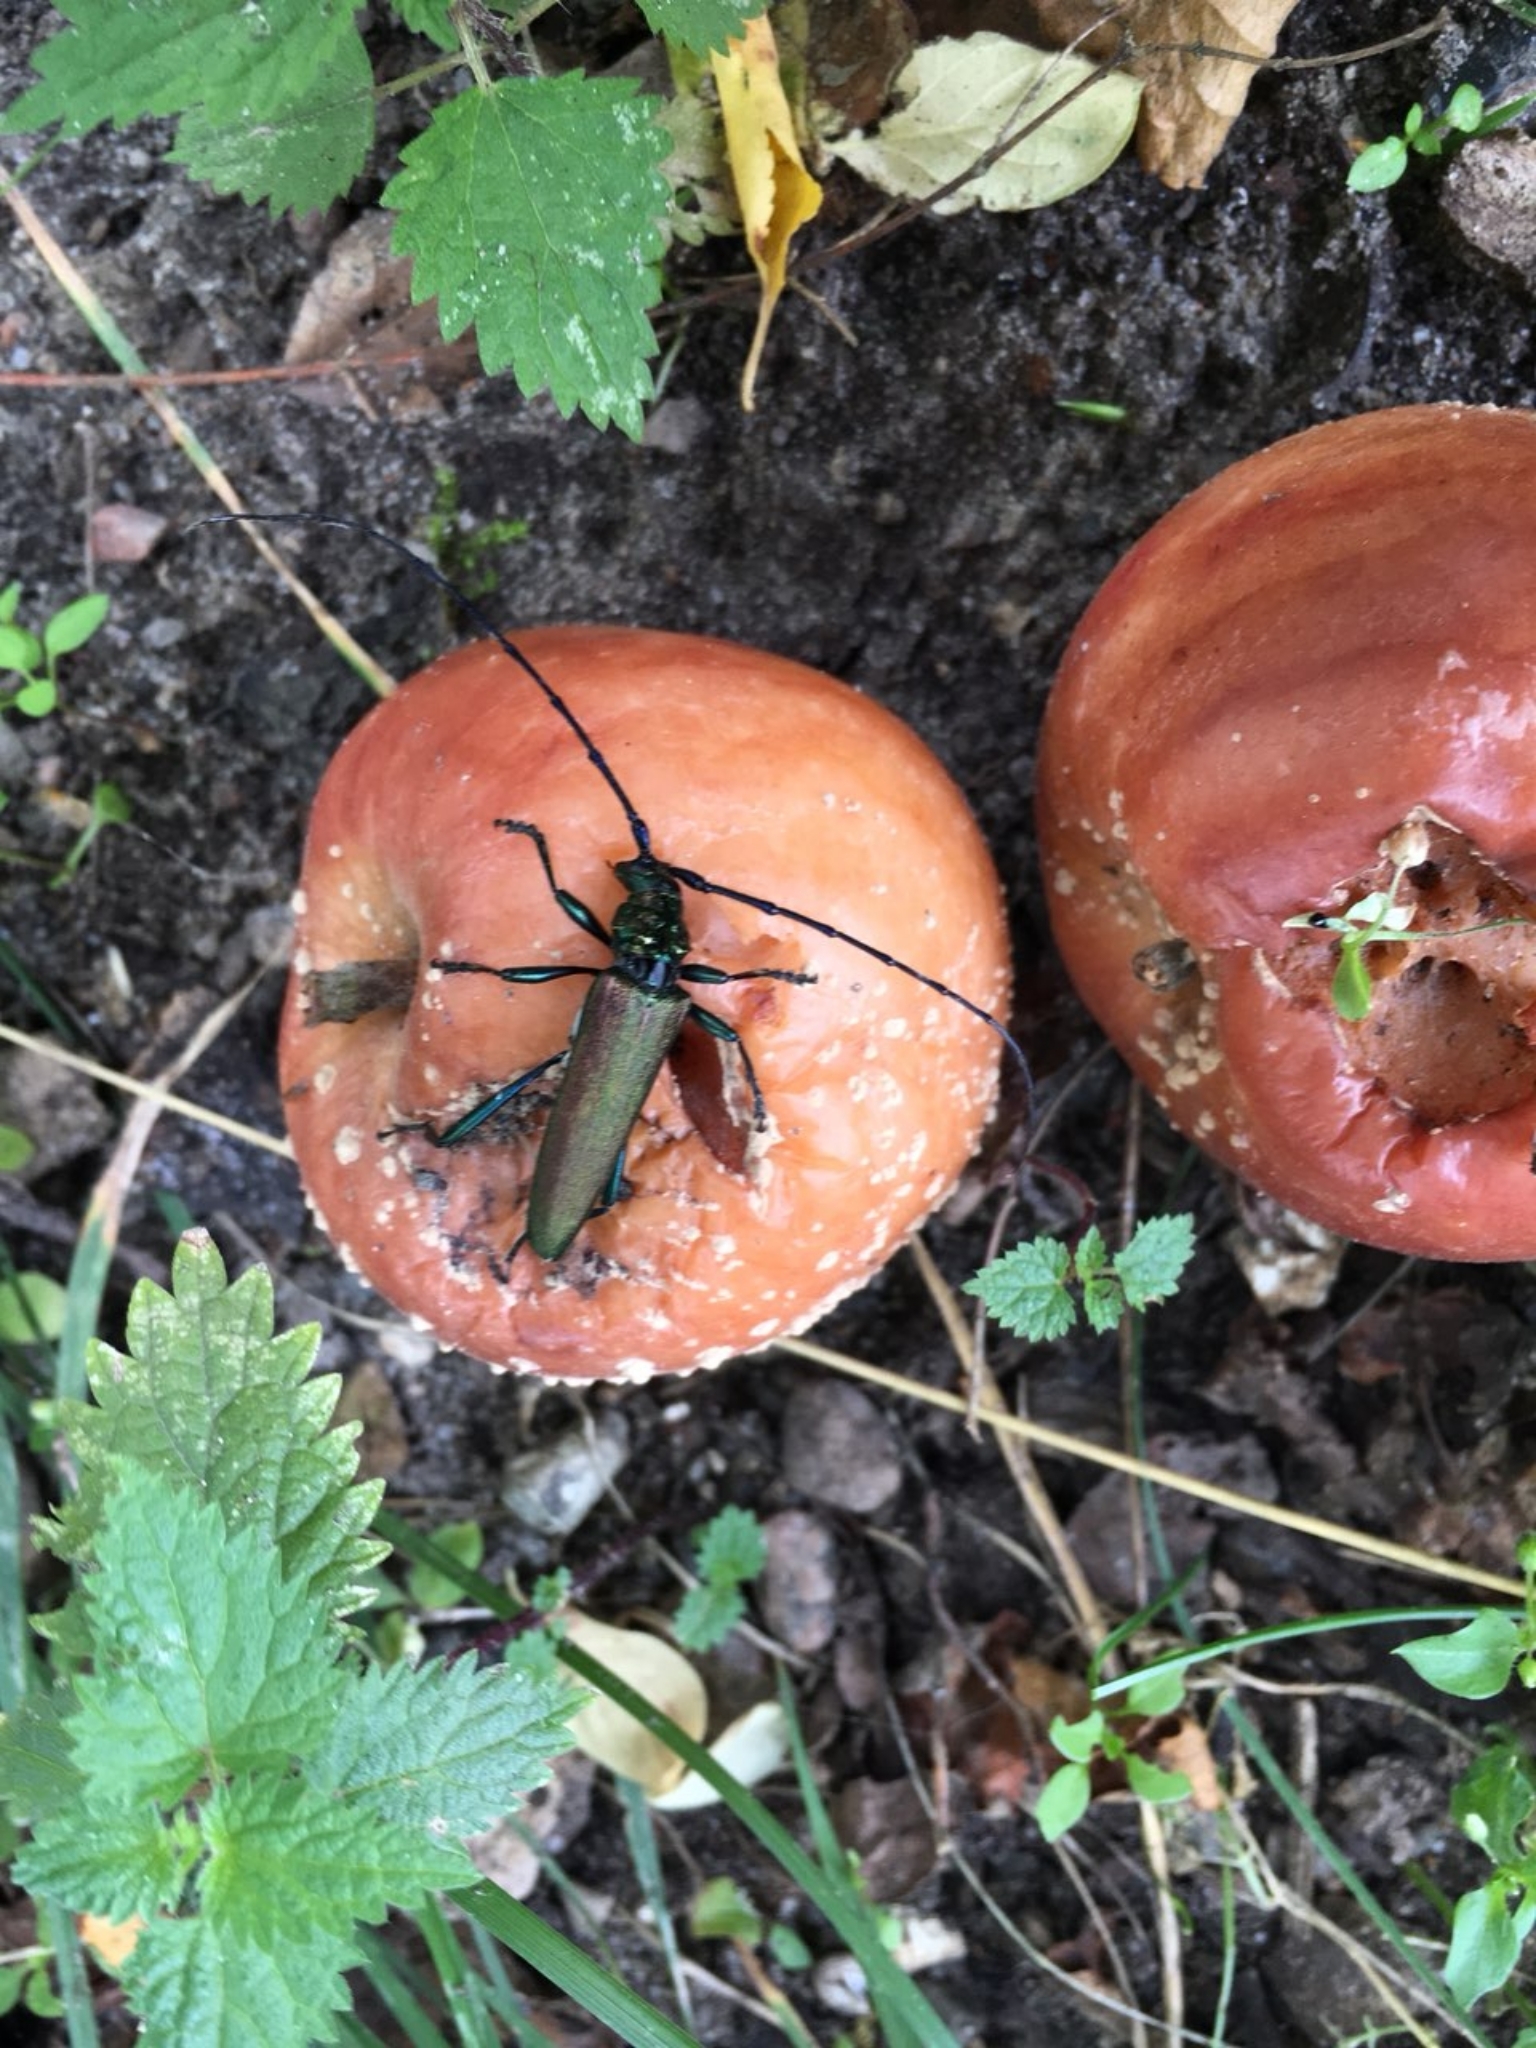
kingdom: Animalia
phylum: Arthropoda
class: Insecta
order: Coleoptera
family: Cerambycidae
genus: Aromia
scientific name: Aromia moschata
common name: Musk beetle
